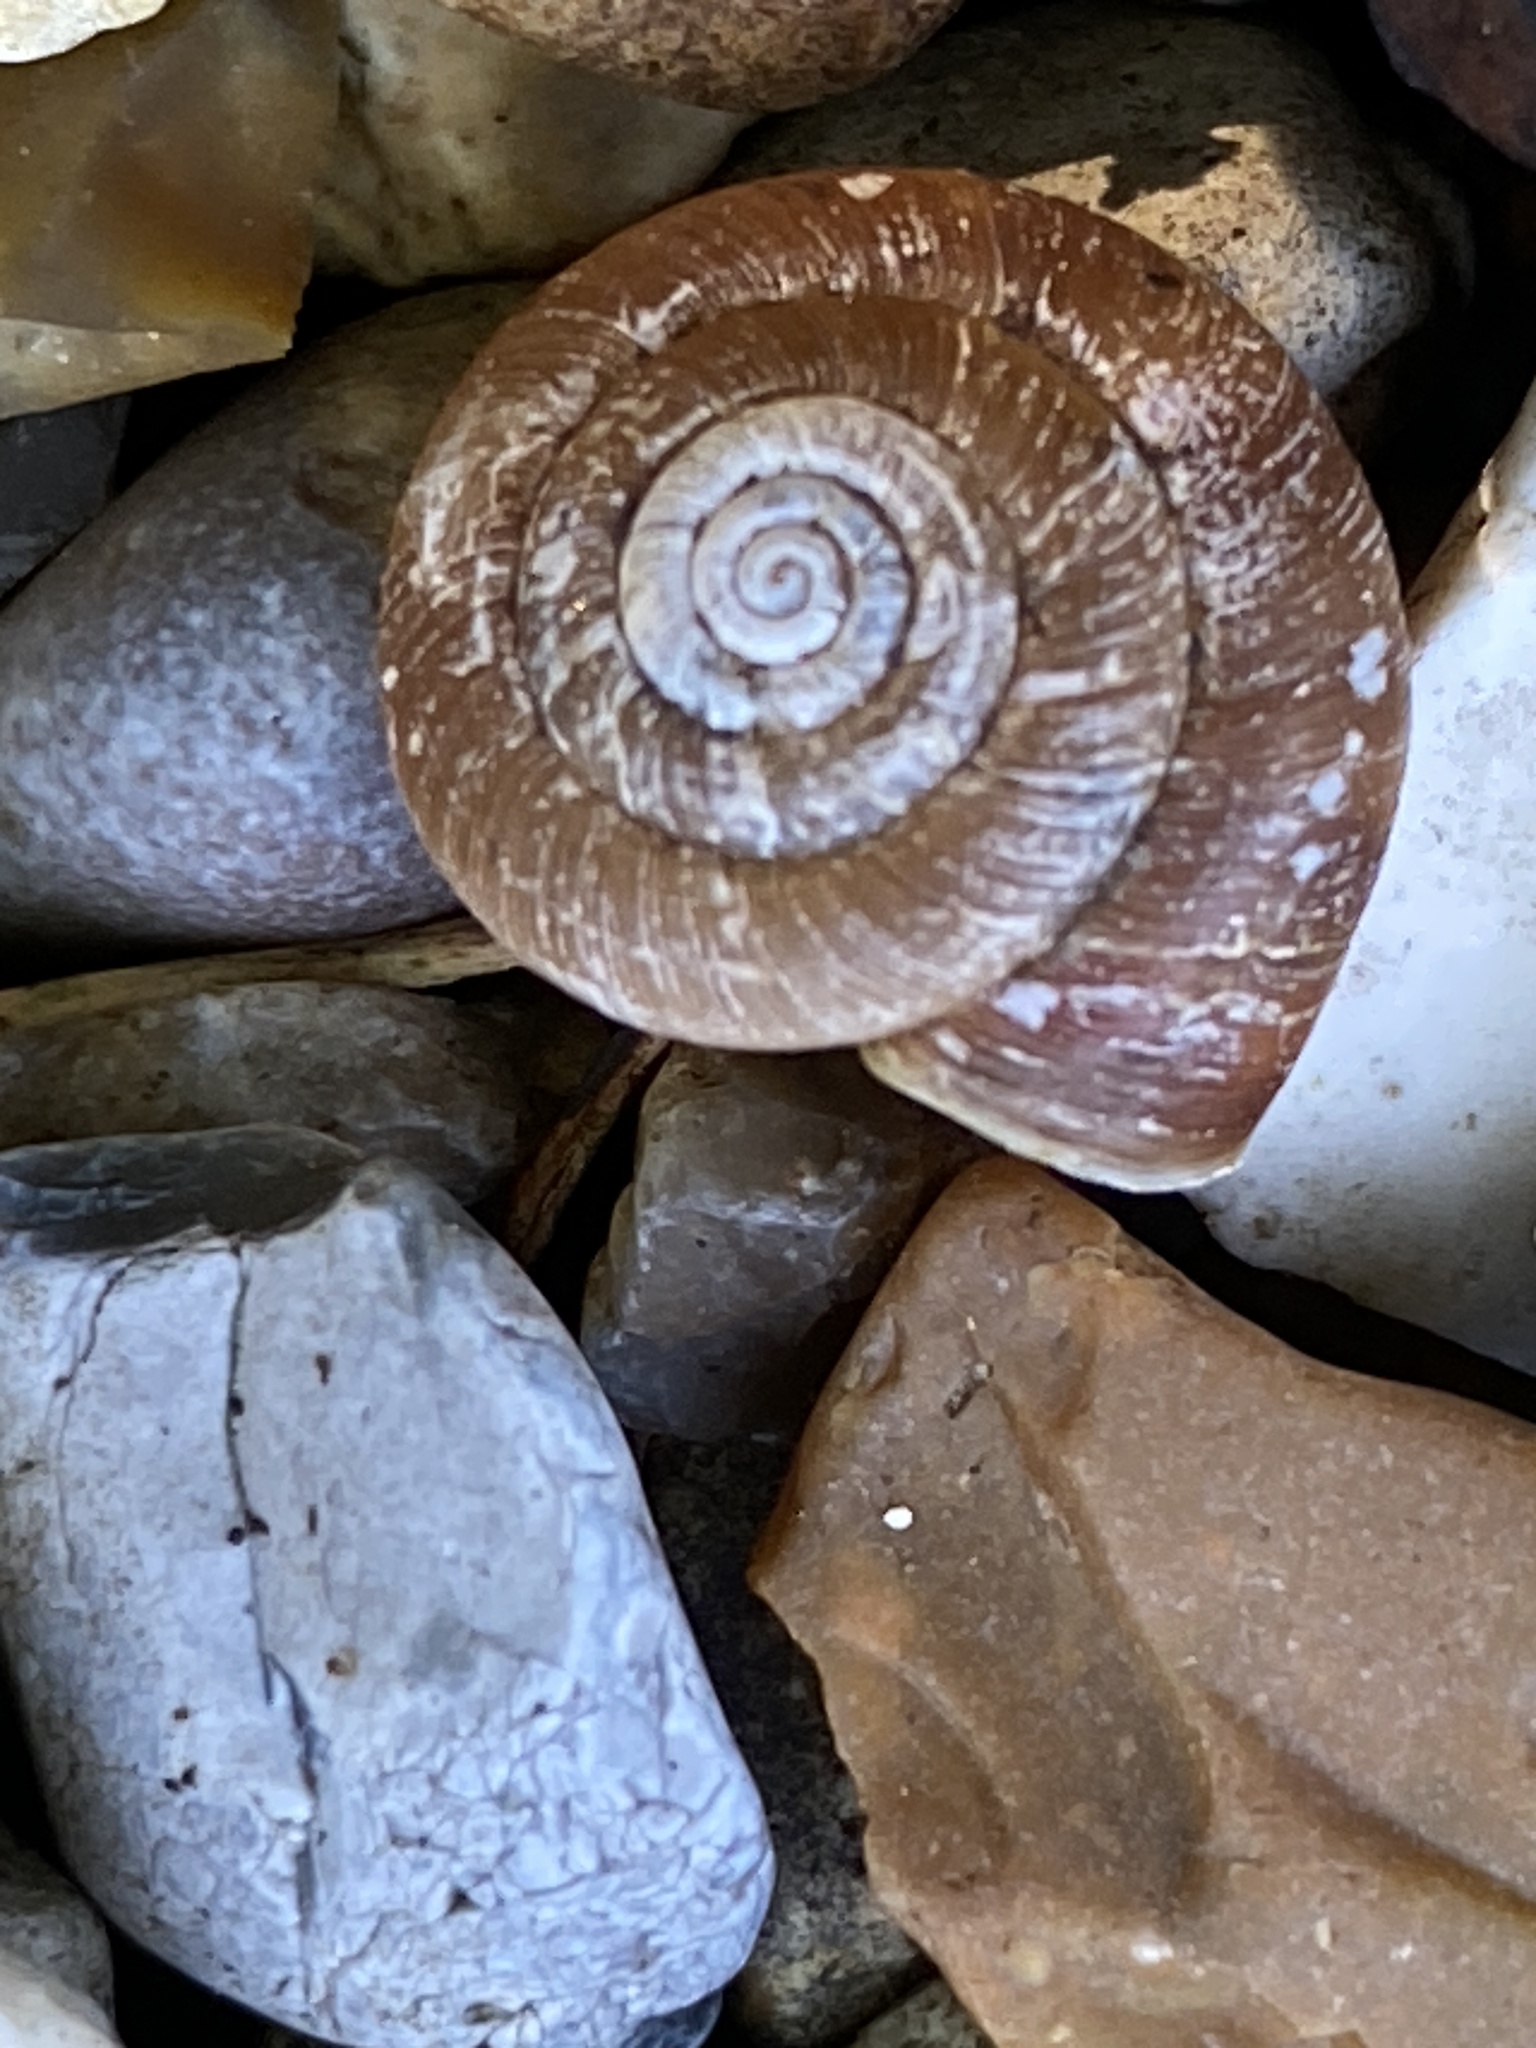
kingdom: Animalia
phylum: Mollusca
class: Gastropoda
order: Stylommatophora
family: Discidae
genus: Discus
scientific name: Discus rotundatus
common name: Rounded snail
